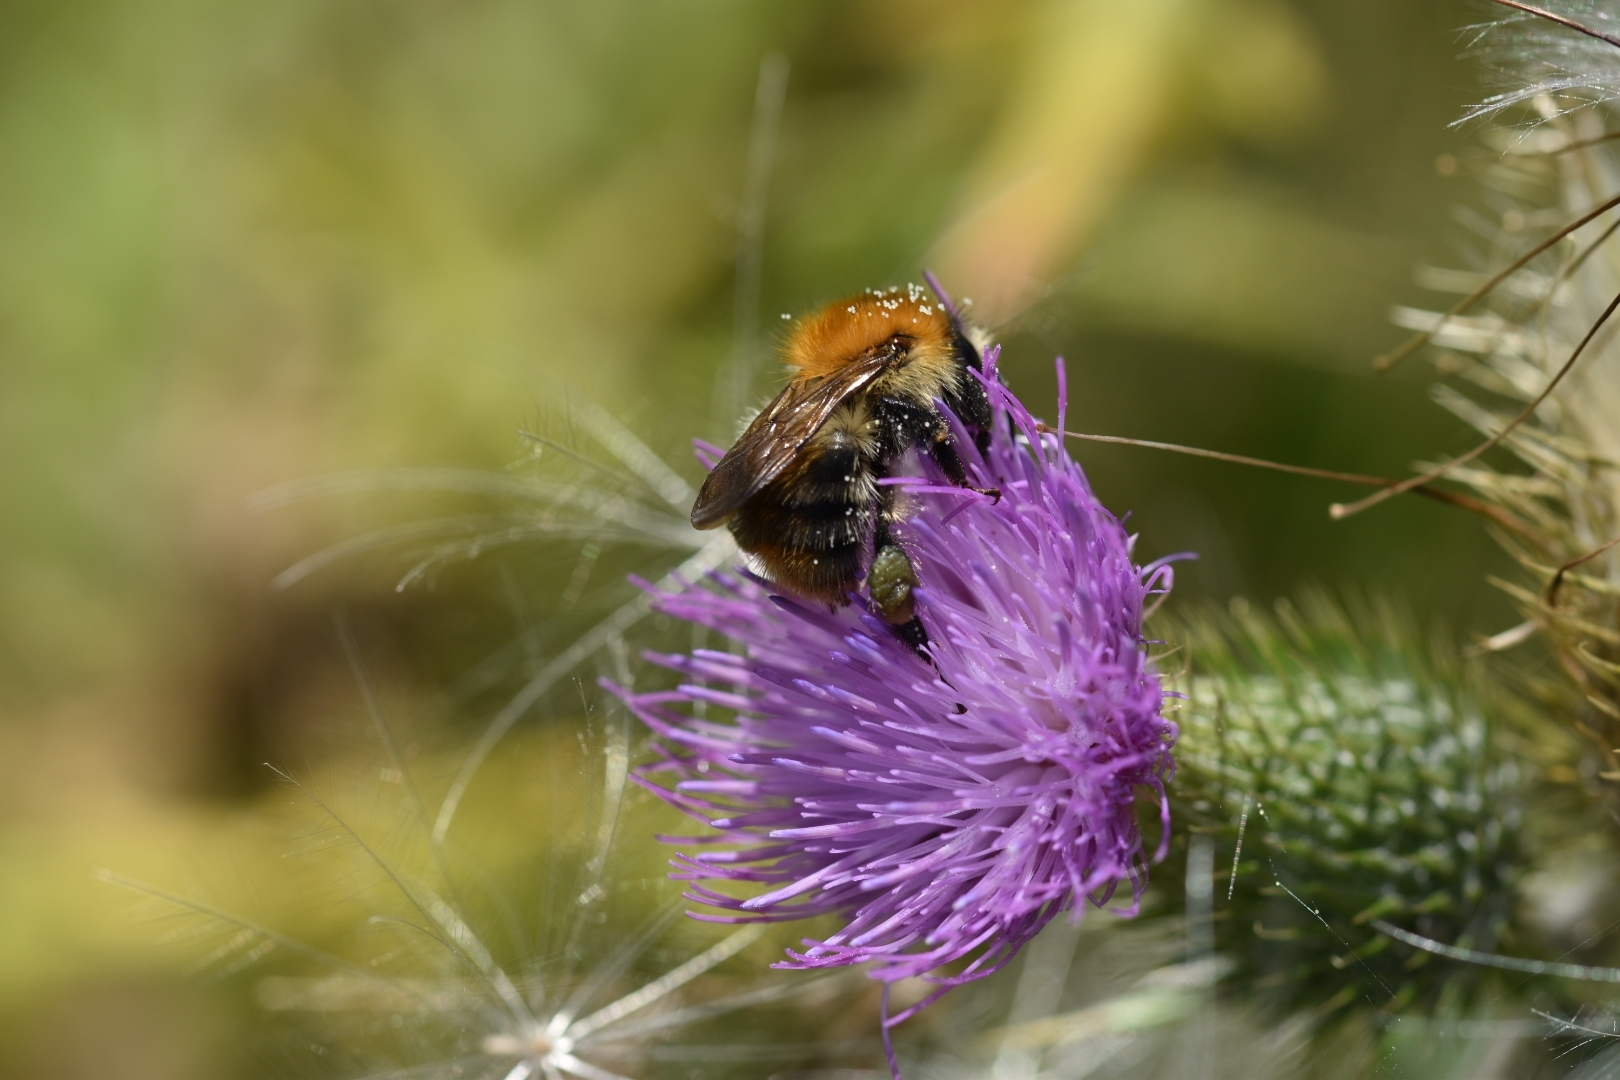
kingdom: Animalia
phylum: Arthropoda
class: Insecta
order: Hymenoptera
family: Apidae
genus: Bombus
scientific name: Bombus pascuorum
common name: Common carder bee
